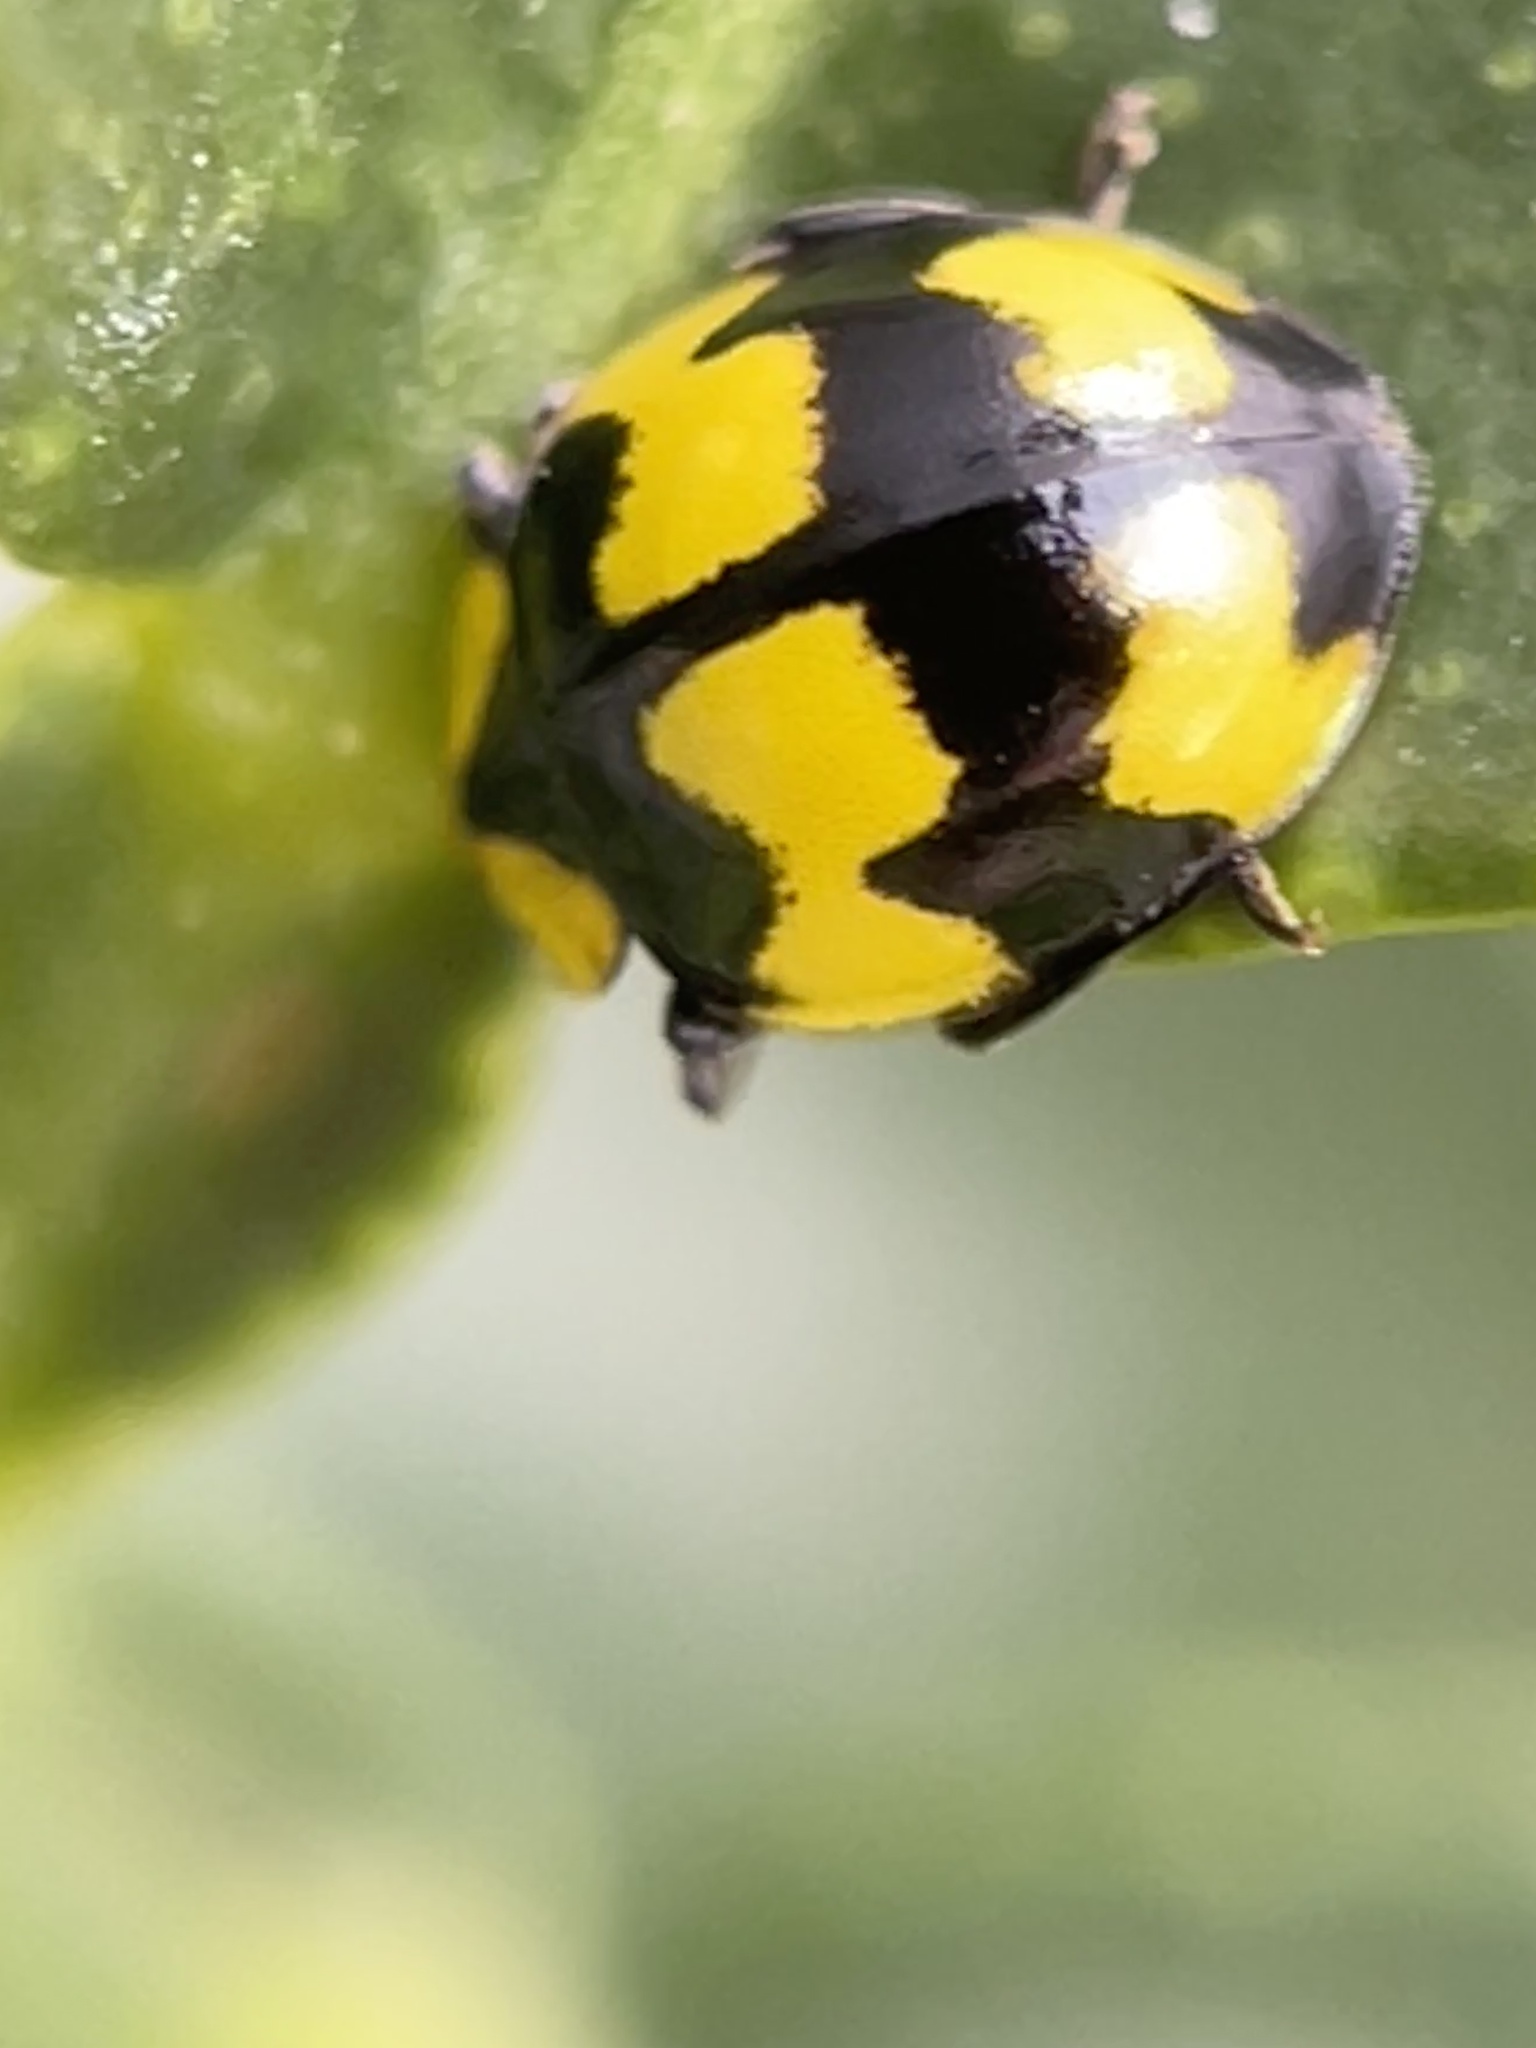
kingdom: Animalia
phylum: Arthropoda
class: Insecta
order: Coleoptera
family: Coccinellidae
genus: Illeis
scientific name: Illeis galbula
